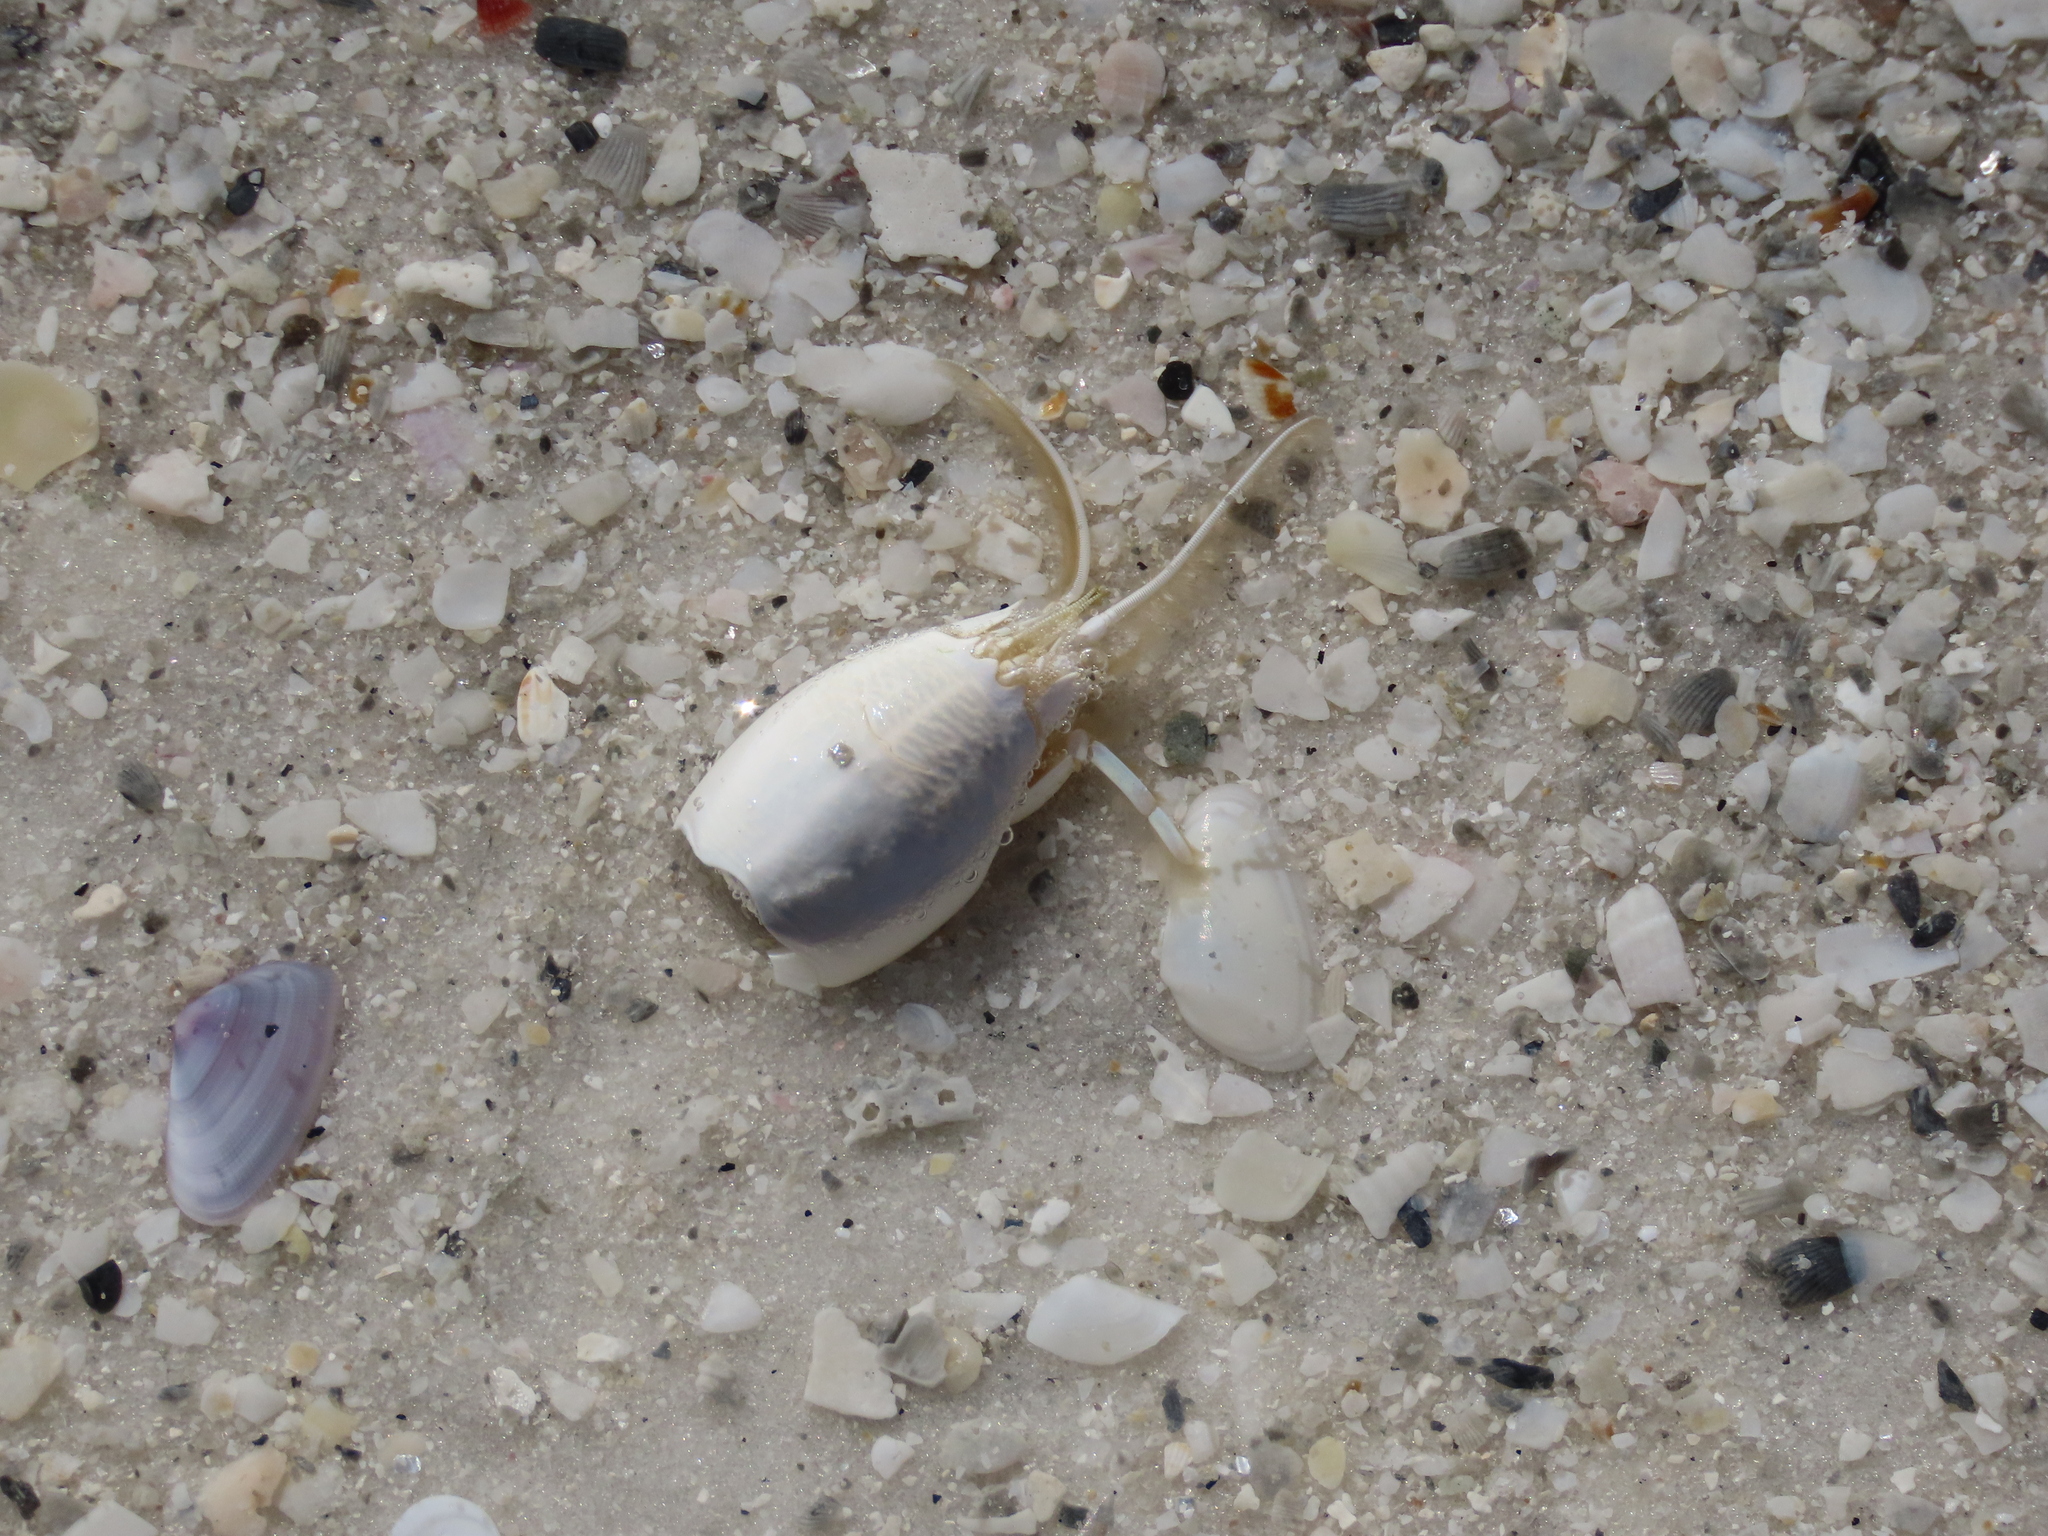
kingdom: Animalia
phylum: Arthropoda
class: Malacostraca
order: Decapoda
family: Hippidae
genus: Emerita
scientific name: Emerita talpoida
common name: Atlantic sand crab
